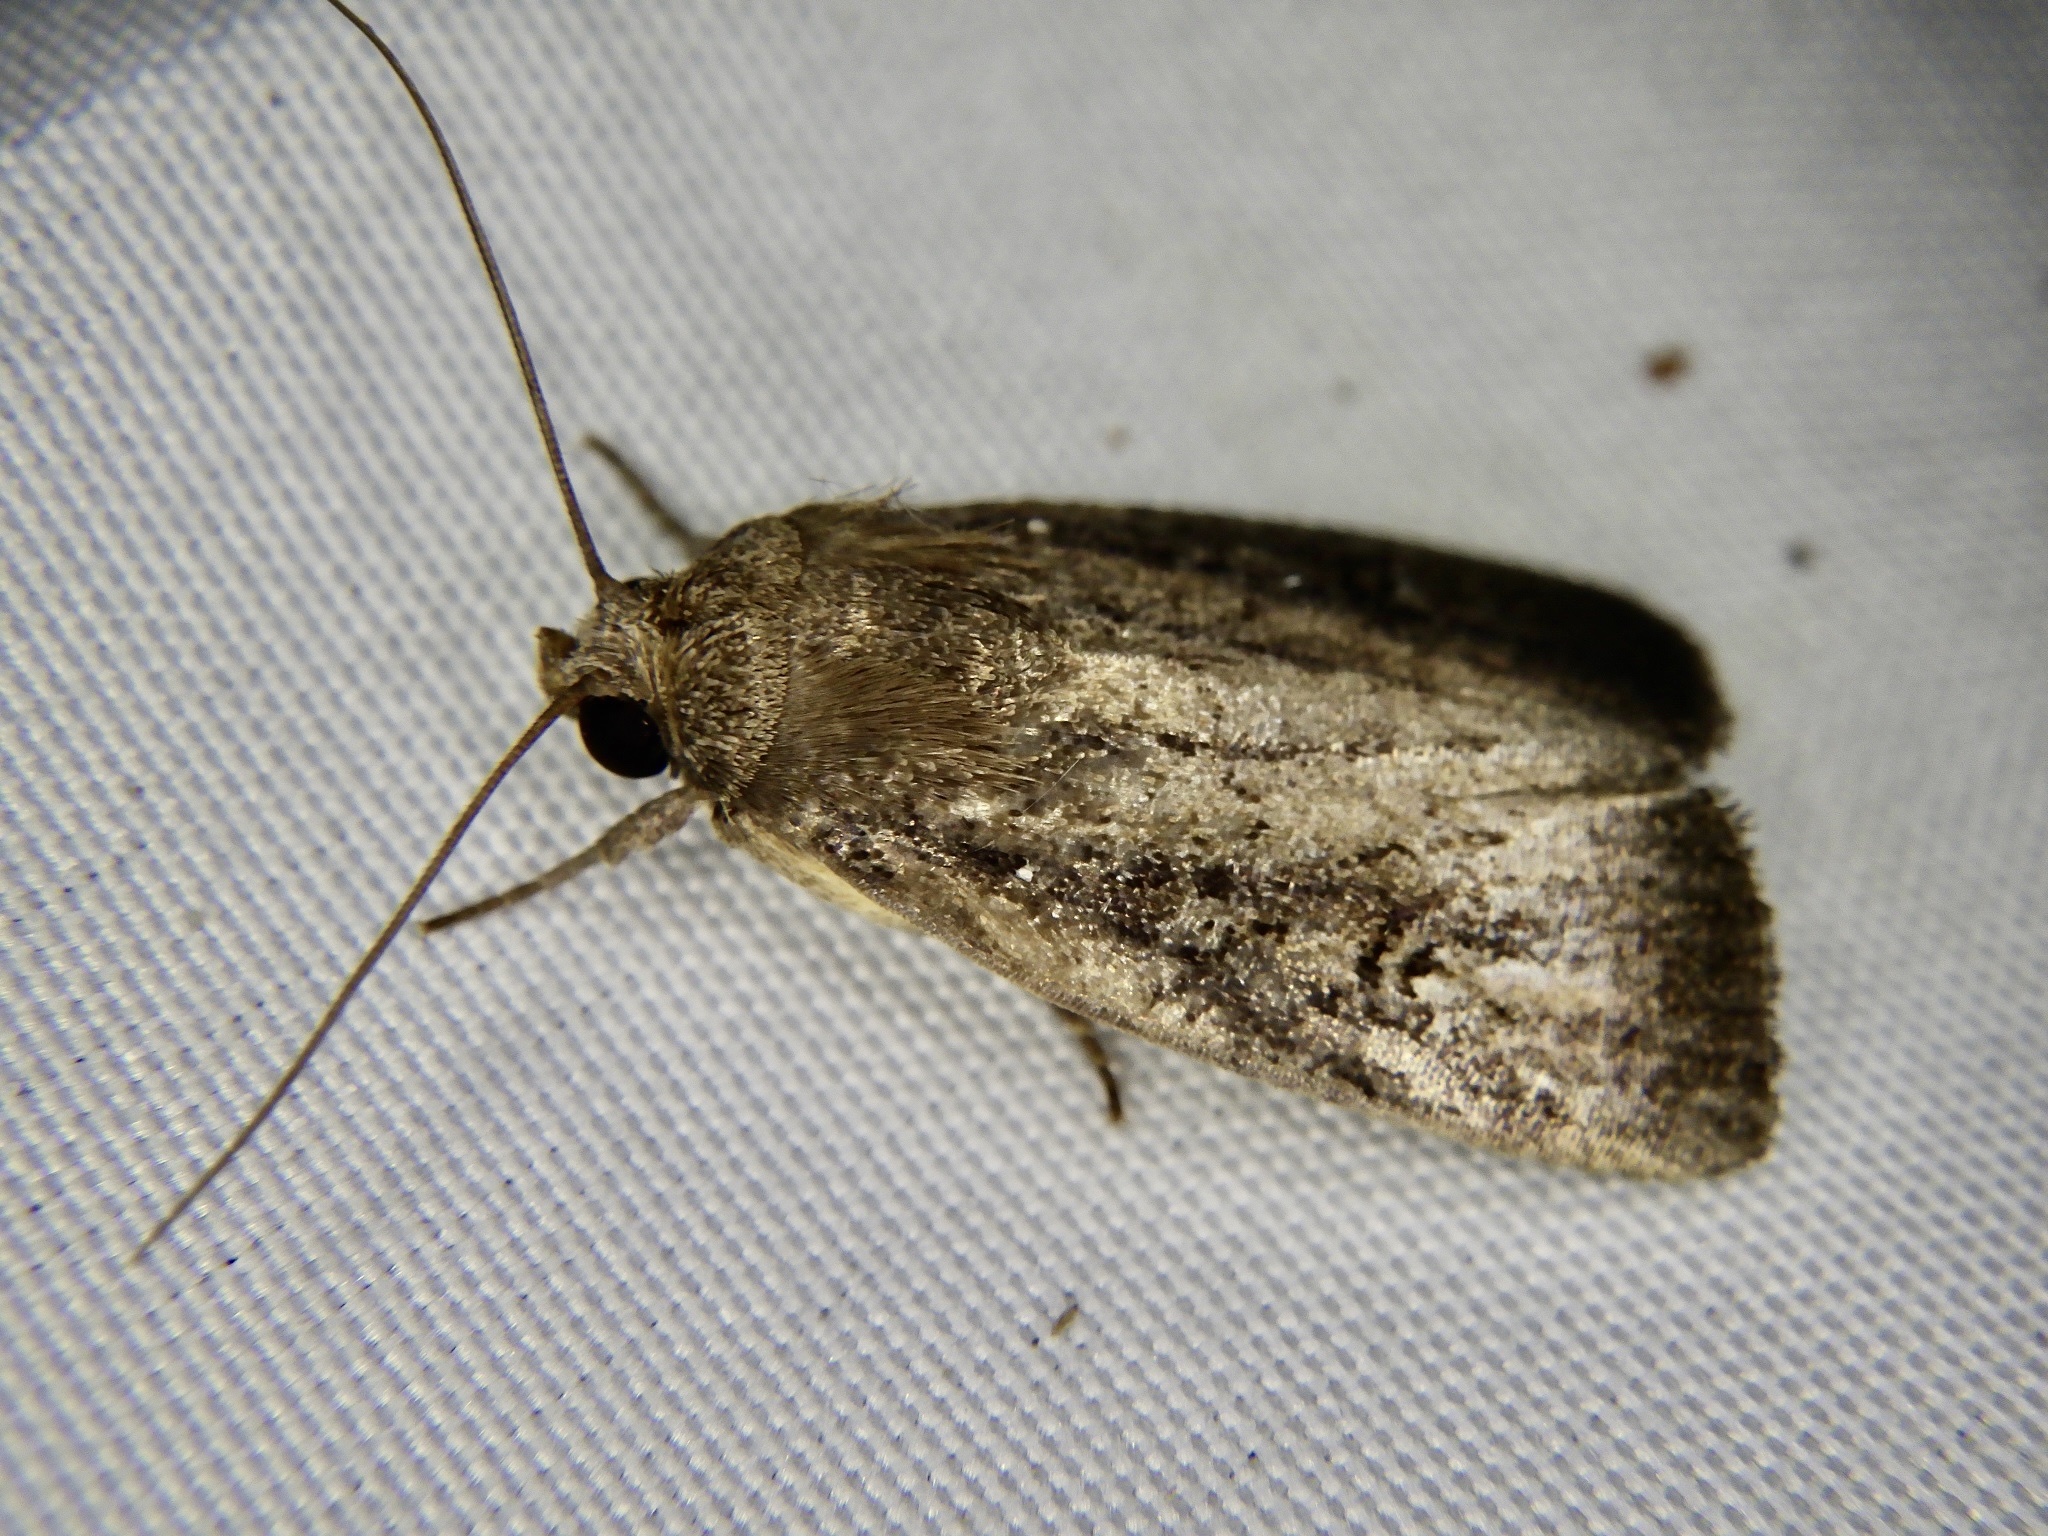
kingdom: Animalia
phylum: Arthropoda
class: Insecta
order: Lepidoptera
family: Noctuidae
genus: Athetis
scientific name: Athetis dissimilis
